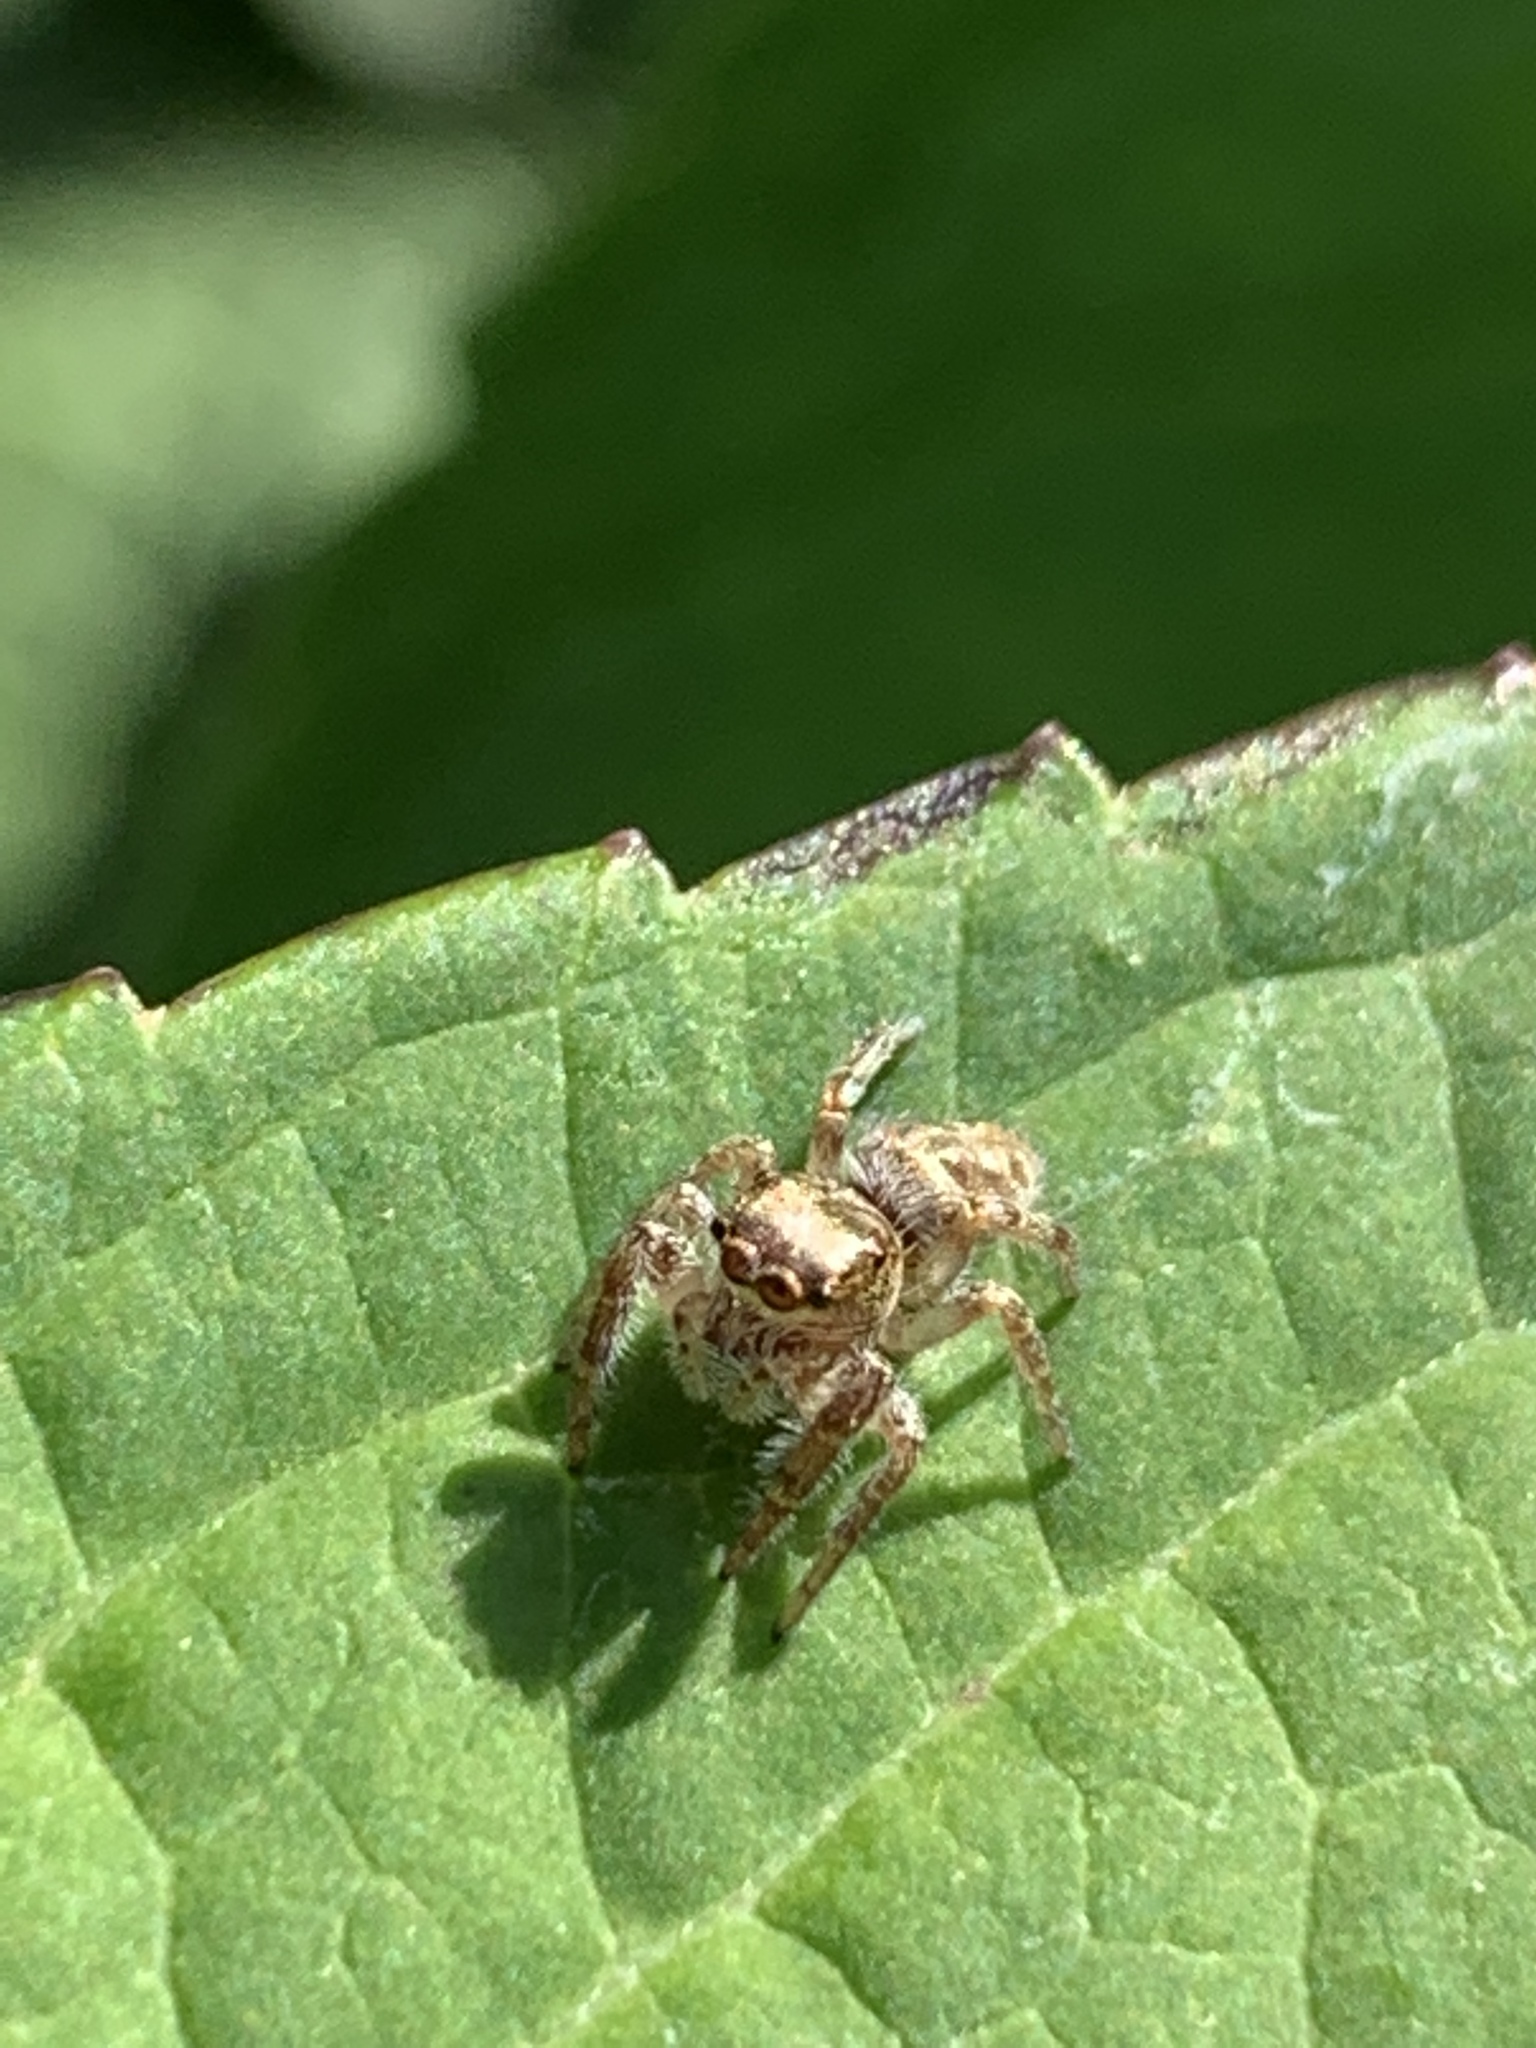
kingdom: Animalia
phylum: Arthropoda
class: Arachnida
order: Araneae
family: Salticidae
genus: Eris
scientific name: Eris militaris
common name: Bronze jumper
